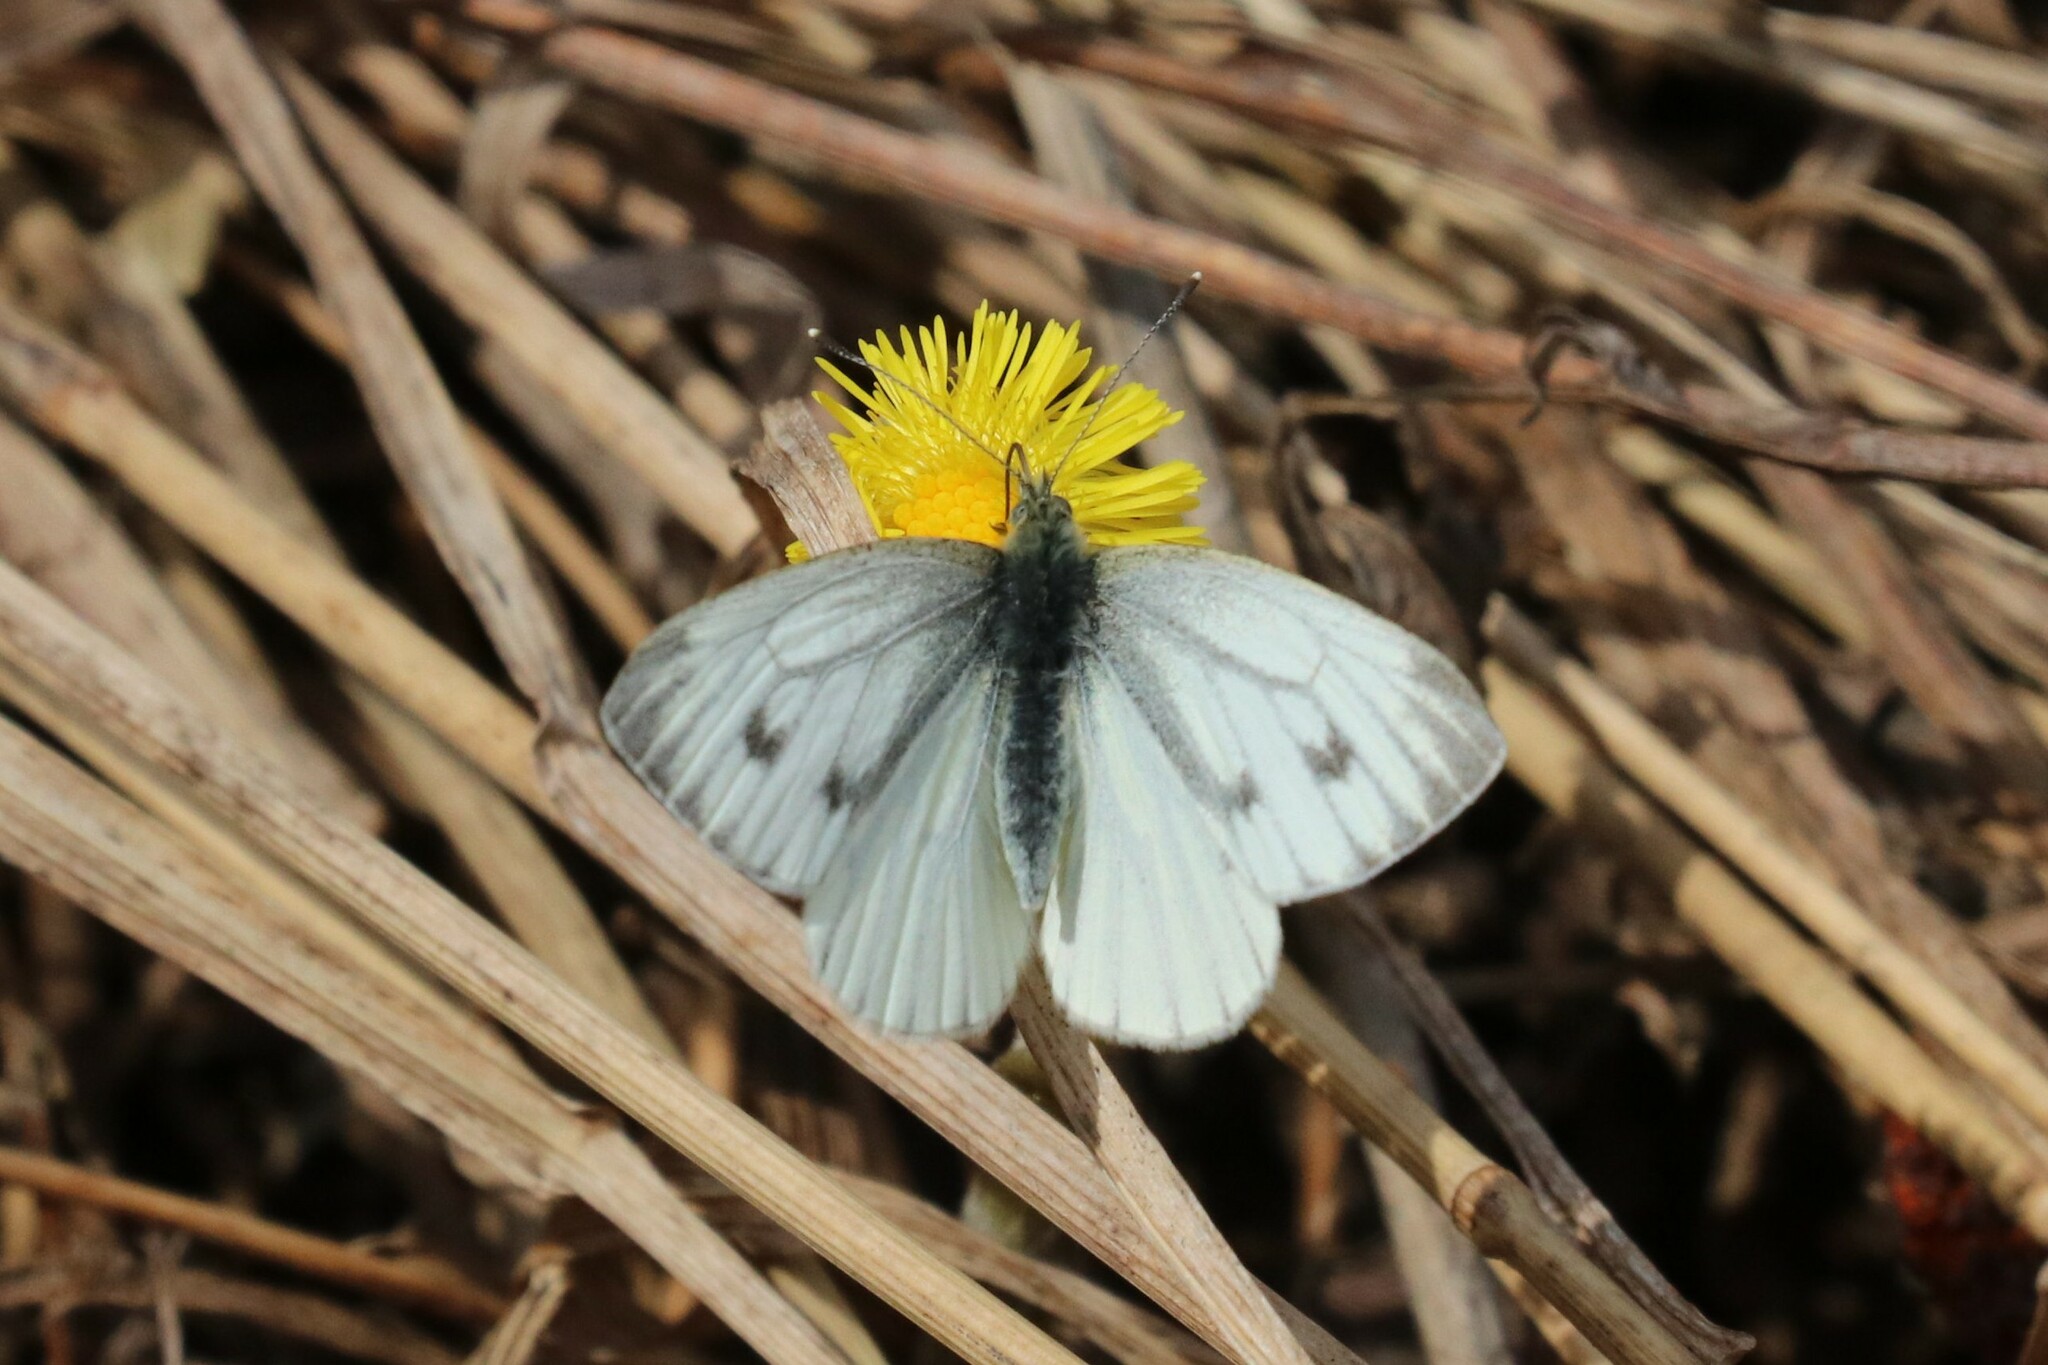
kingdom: Animalia
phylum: Arthropoda
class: Insecta
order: Lepidoptera
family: Pieridae
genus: Pieris
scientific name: Pieris napi
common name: Green-veined white
